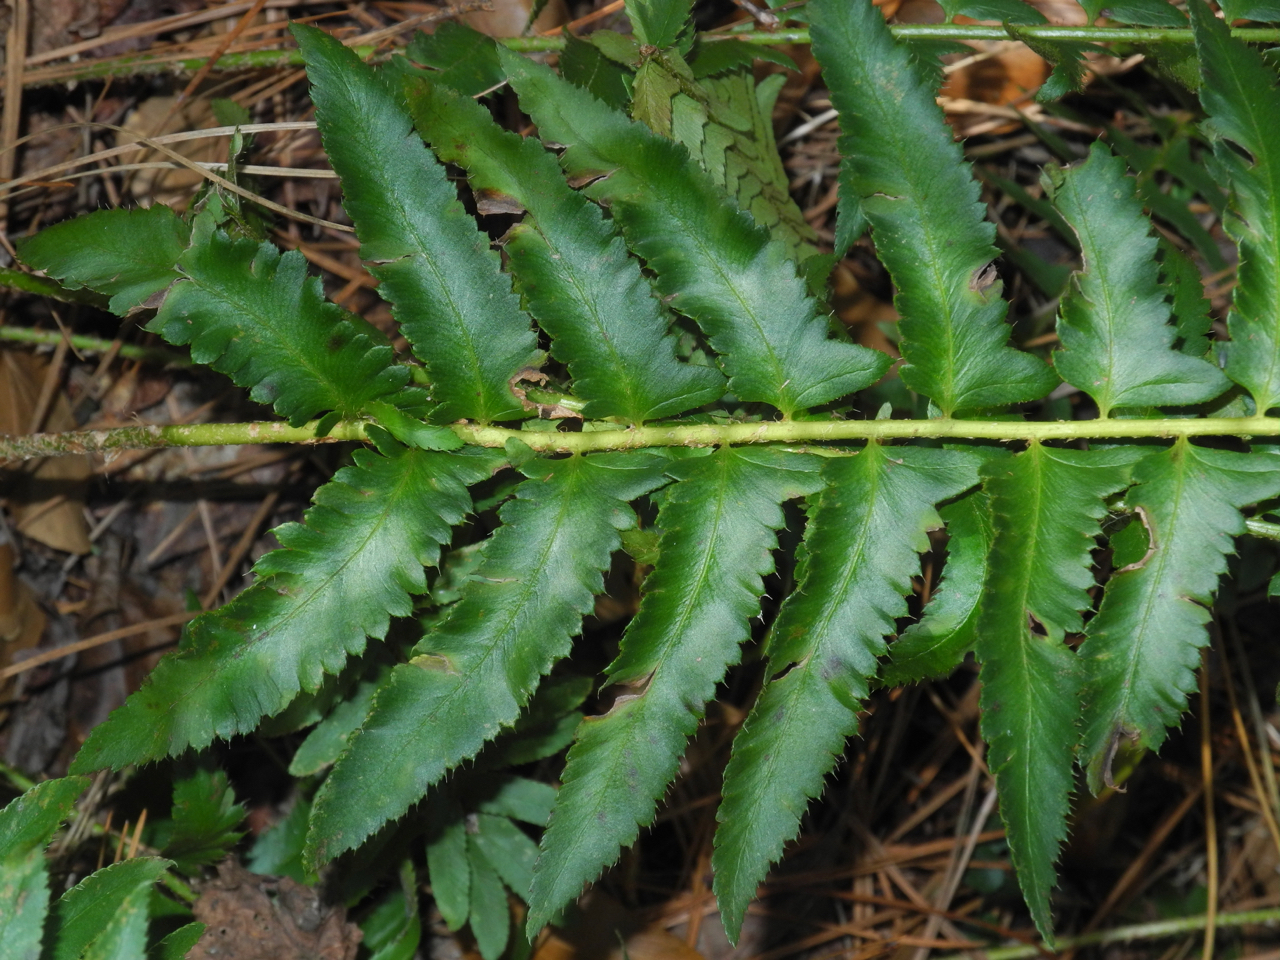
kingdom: Plantae
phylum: Tracheophyta
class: Polypodiopsida
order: Polypodiales
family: Dryopteridaceae
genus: Polystichum
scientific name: Polystichum acrostichoides
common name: Christmas fern
